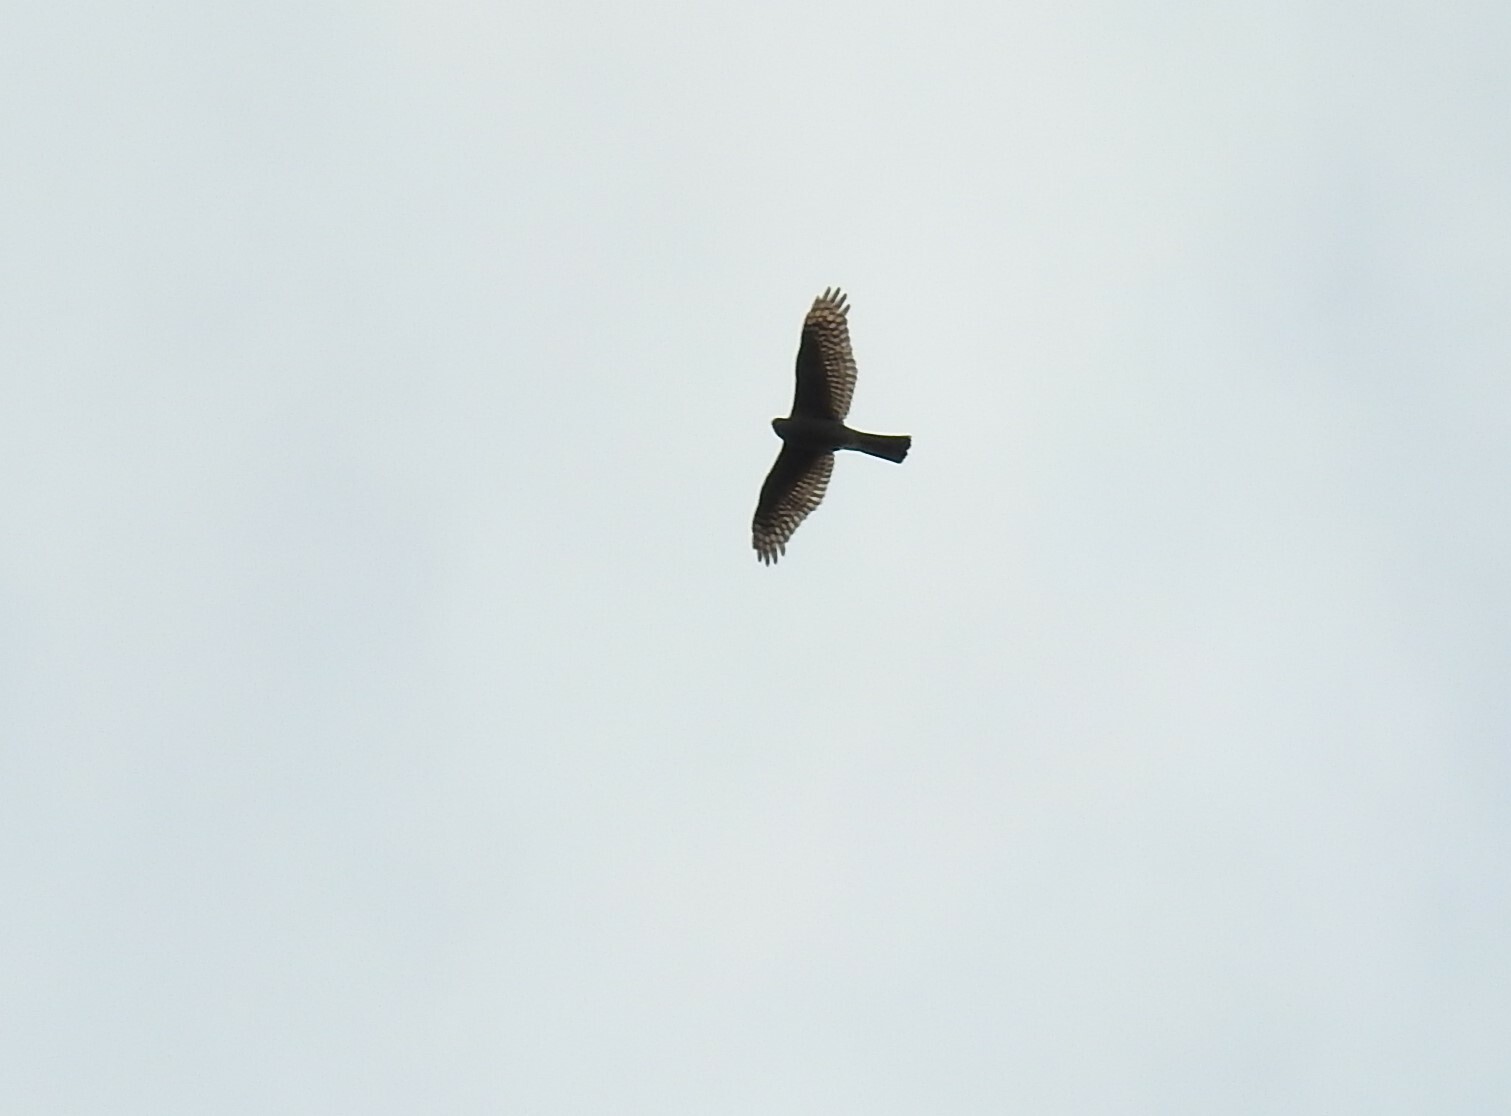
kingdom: Animalia
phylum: Chordata
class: Aves
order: Accipitriformes
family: Accipitridae
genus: Accipiter
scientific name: Accipiter nisus
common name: Eurasian sparrowhawk
